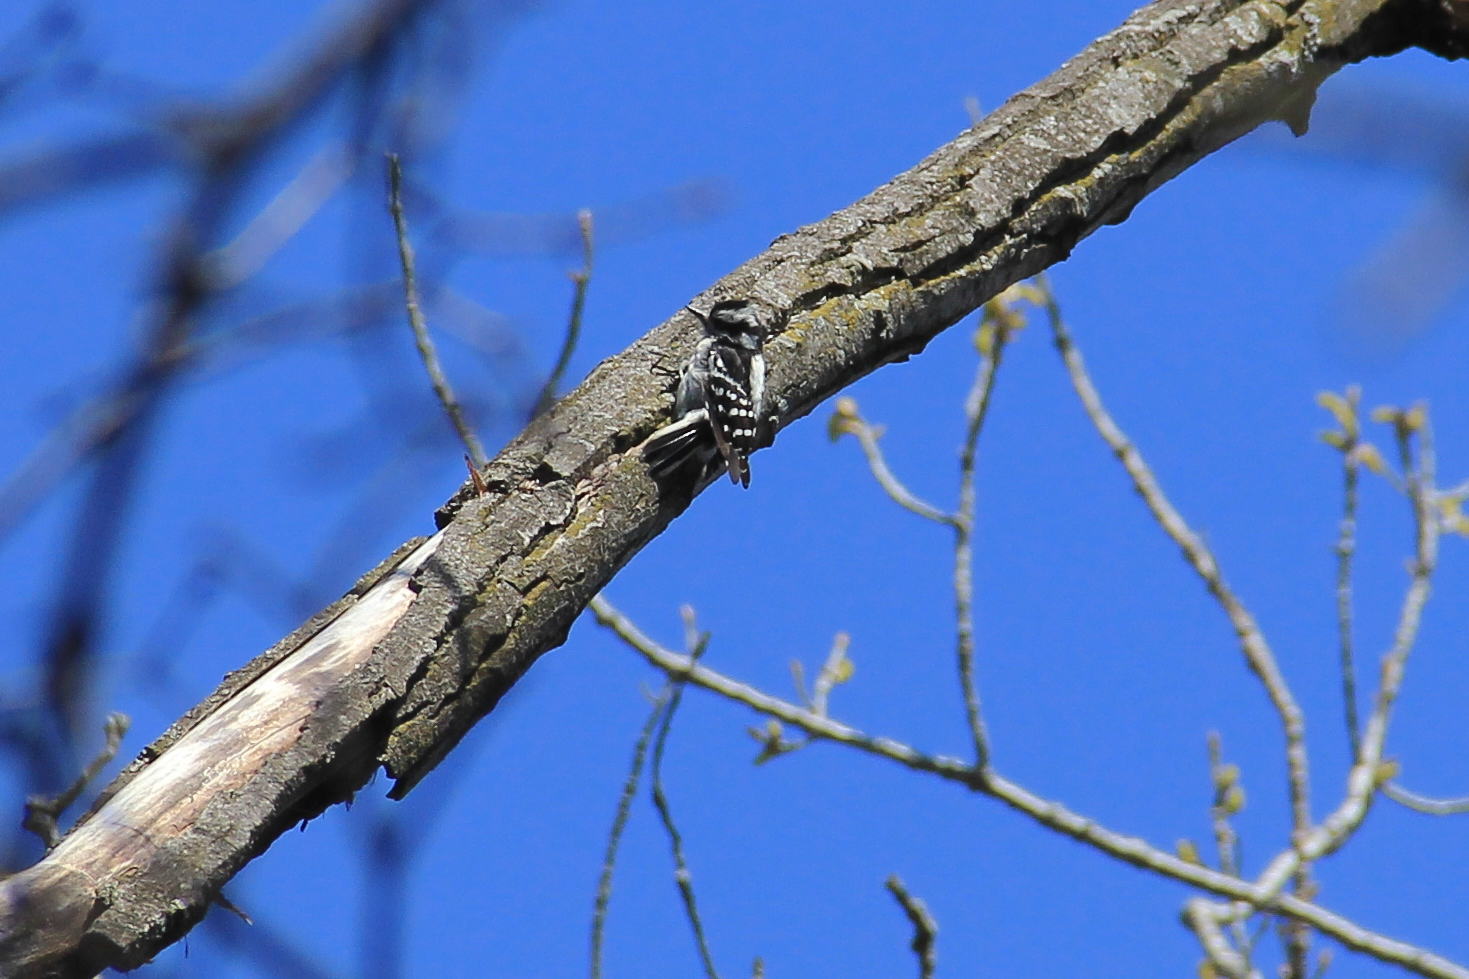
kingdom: Animalia
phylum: Chordata
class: Aves
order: Piciformes
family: Picidae
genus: Dryobates
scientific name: Dryobates pubescens
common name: Downy woodpecker
